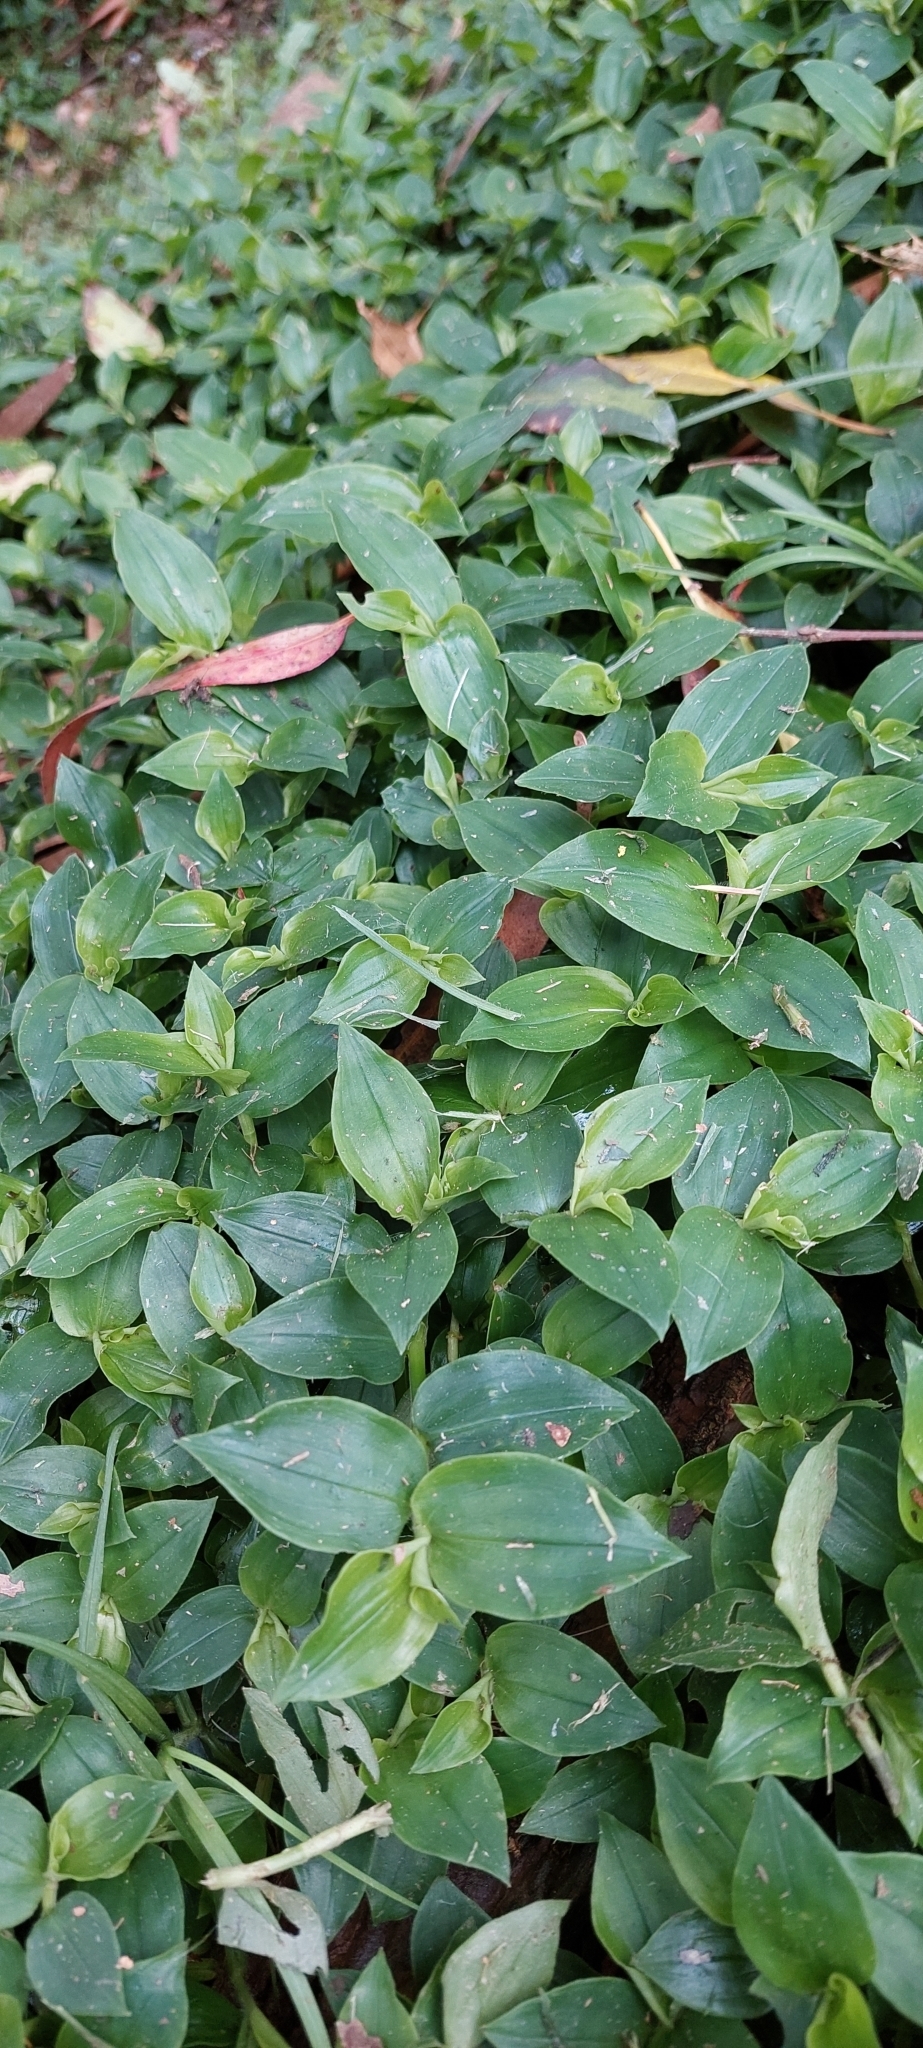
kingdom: Plantae
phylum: Tracheophyta
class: Liliopsida
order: Commelinales
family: Commelinaceae
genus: Tradescantia
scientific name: Tradescantia fluminensis
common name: Wandering-jew
